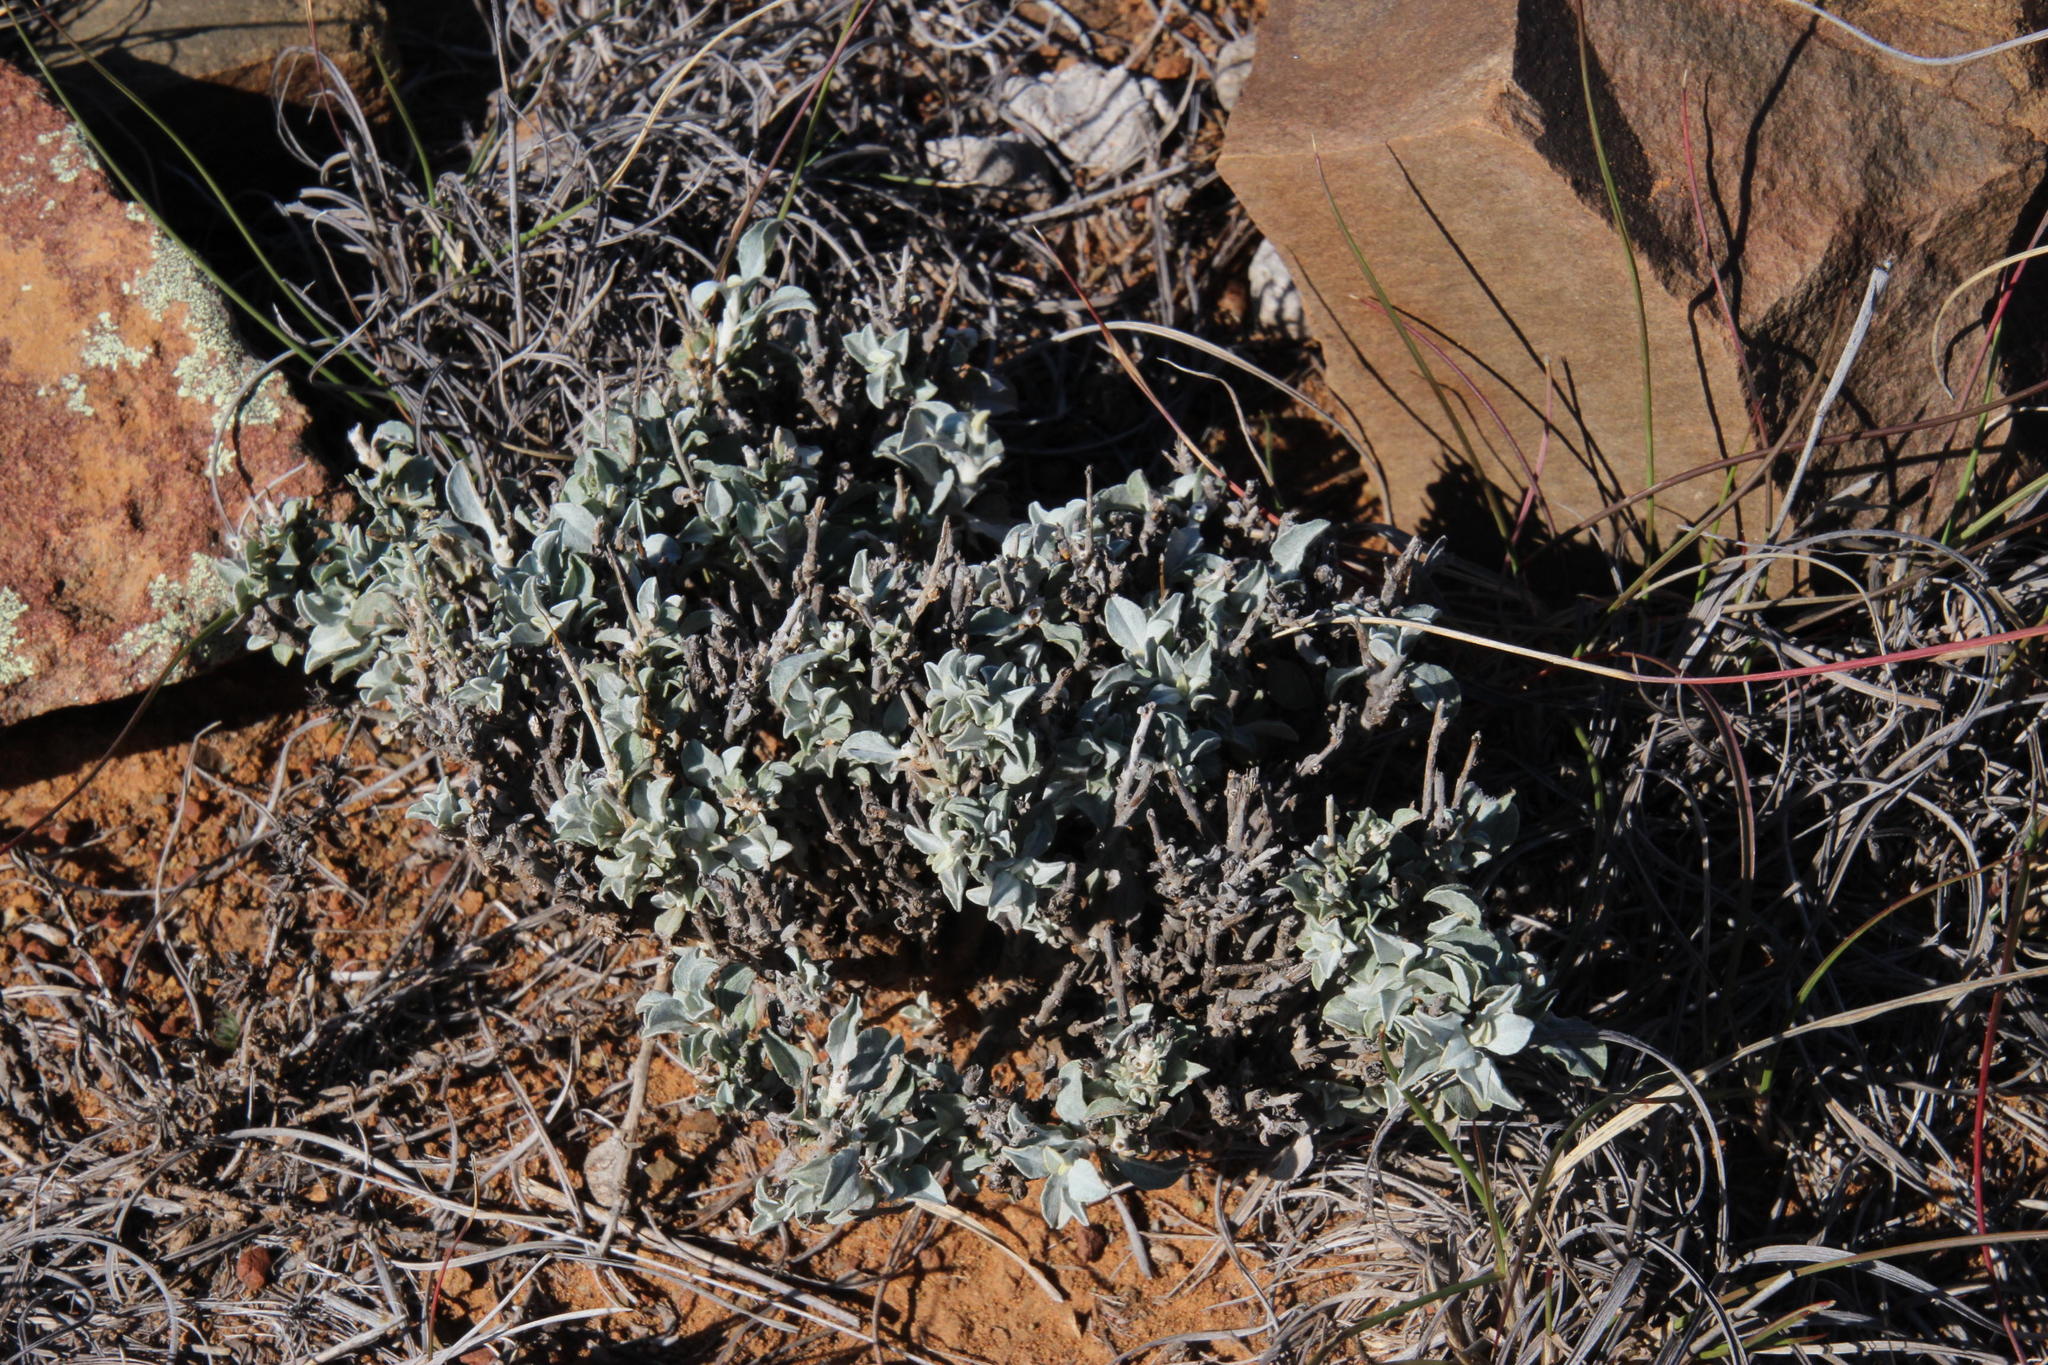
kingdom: Plantae
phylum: Tracheophyta
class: Magnoliopsida
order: Asterales
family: Asteraceae
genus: Helichrysum
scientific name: Helichrysum zeyheri
